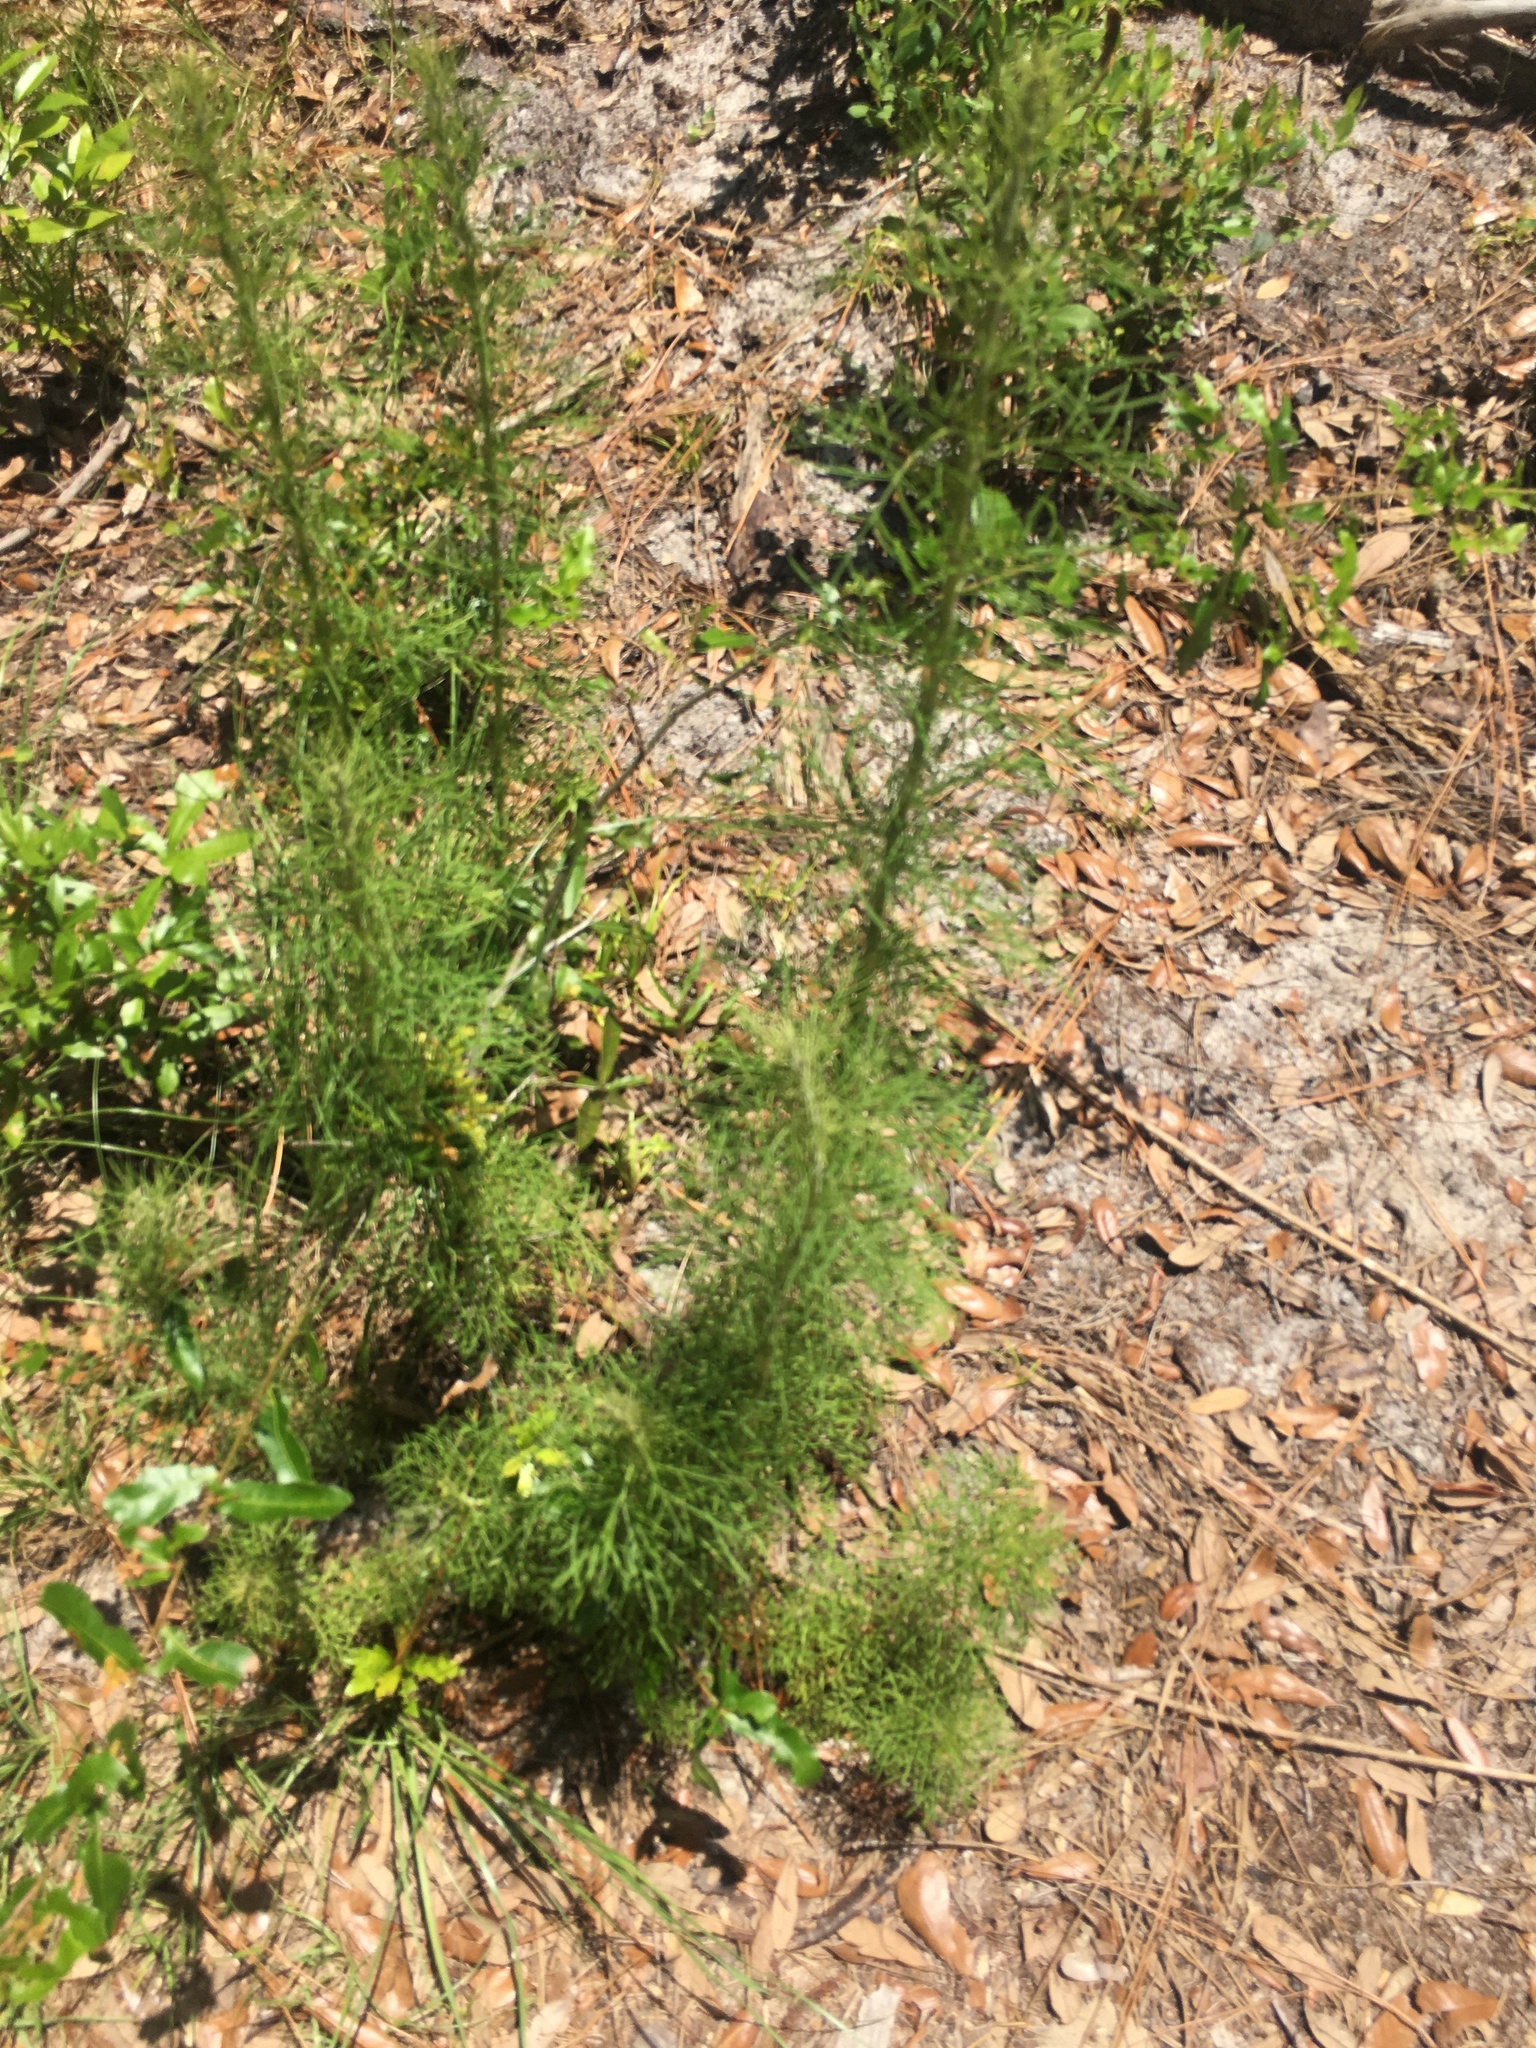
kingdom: Plantae
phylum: Tracheophyta
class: Magnoliopsida
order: Asterales
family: Asteraceae
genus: Eupatorium
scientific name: Eupatorium capillifolium
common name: Dog-fennel
